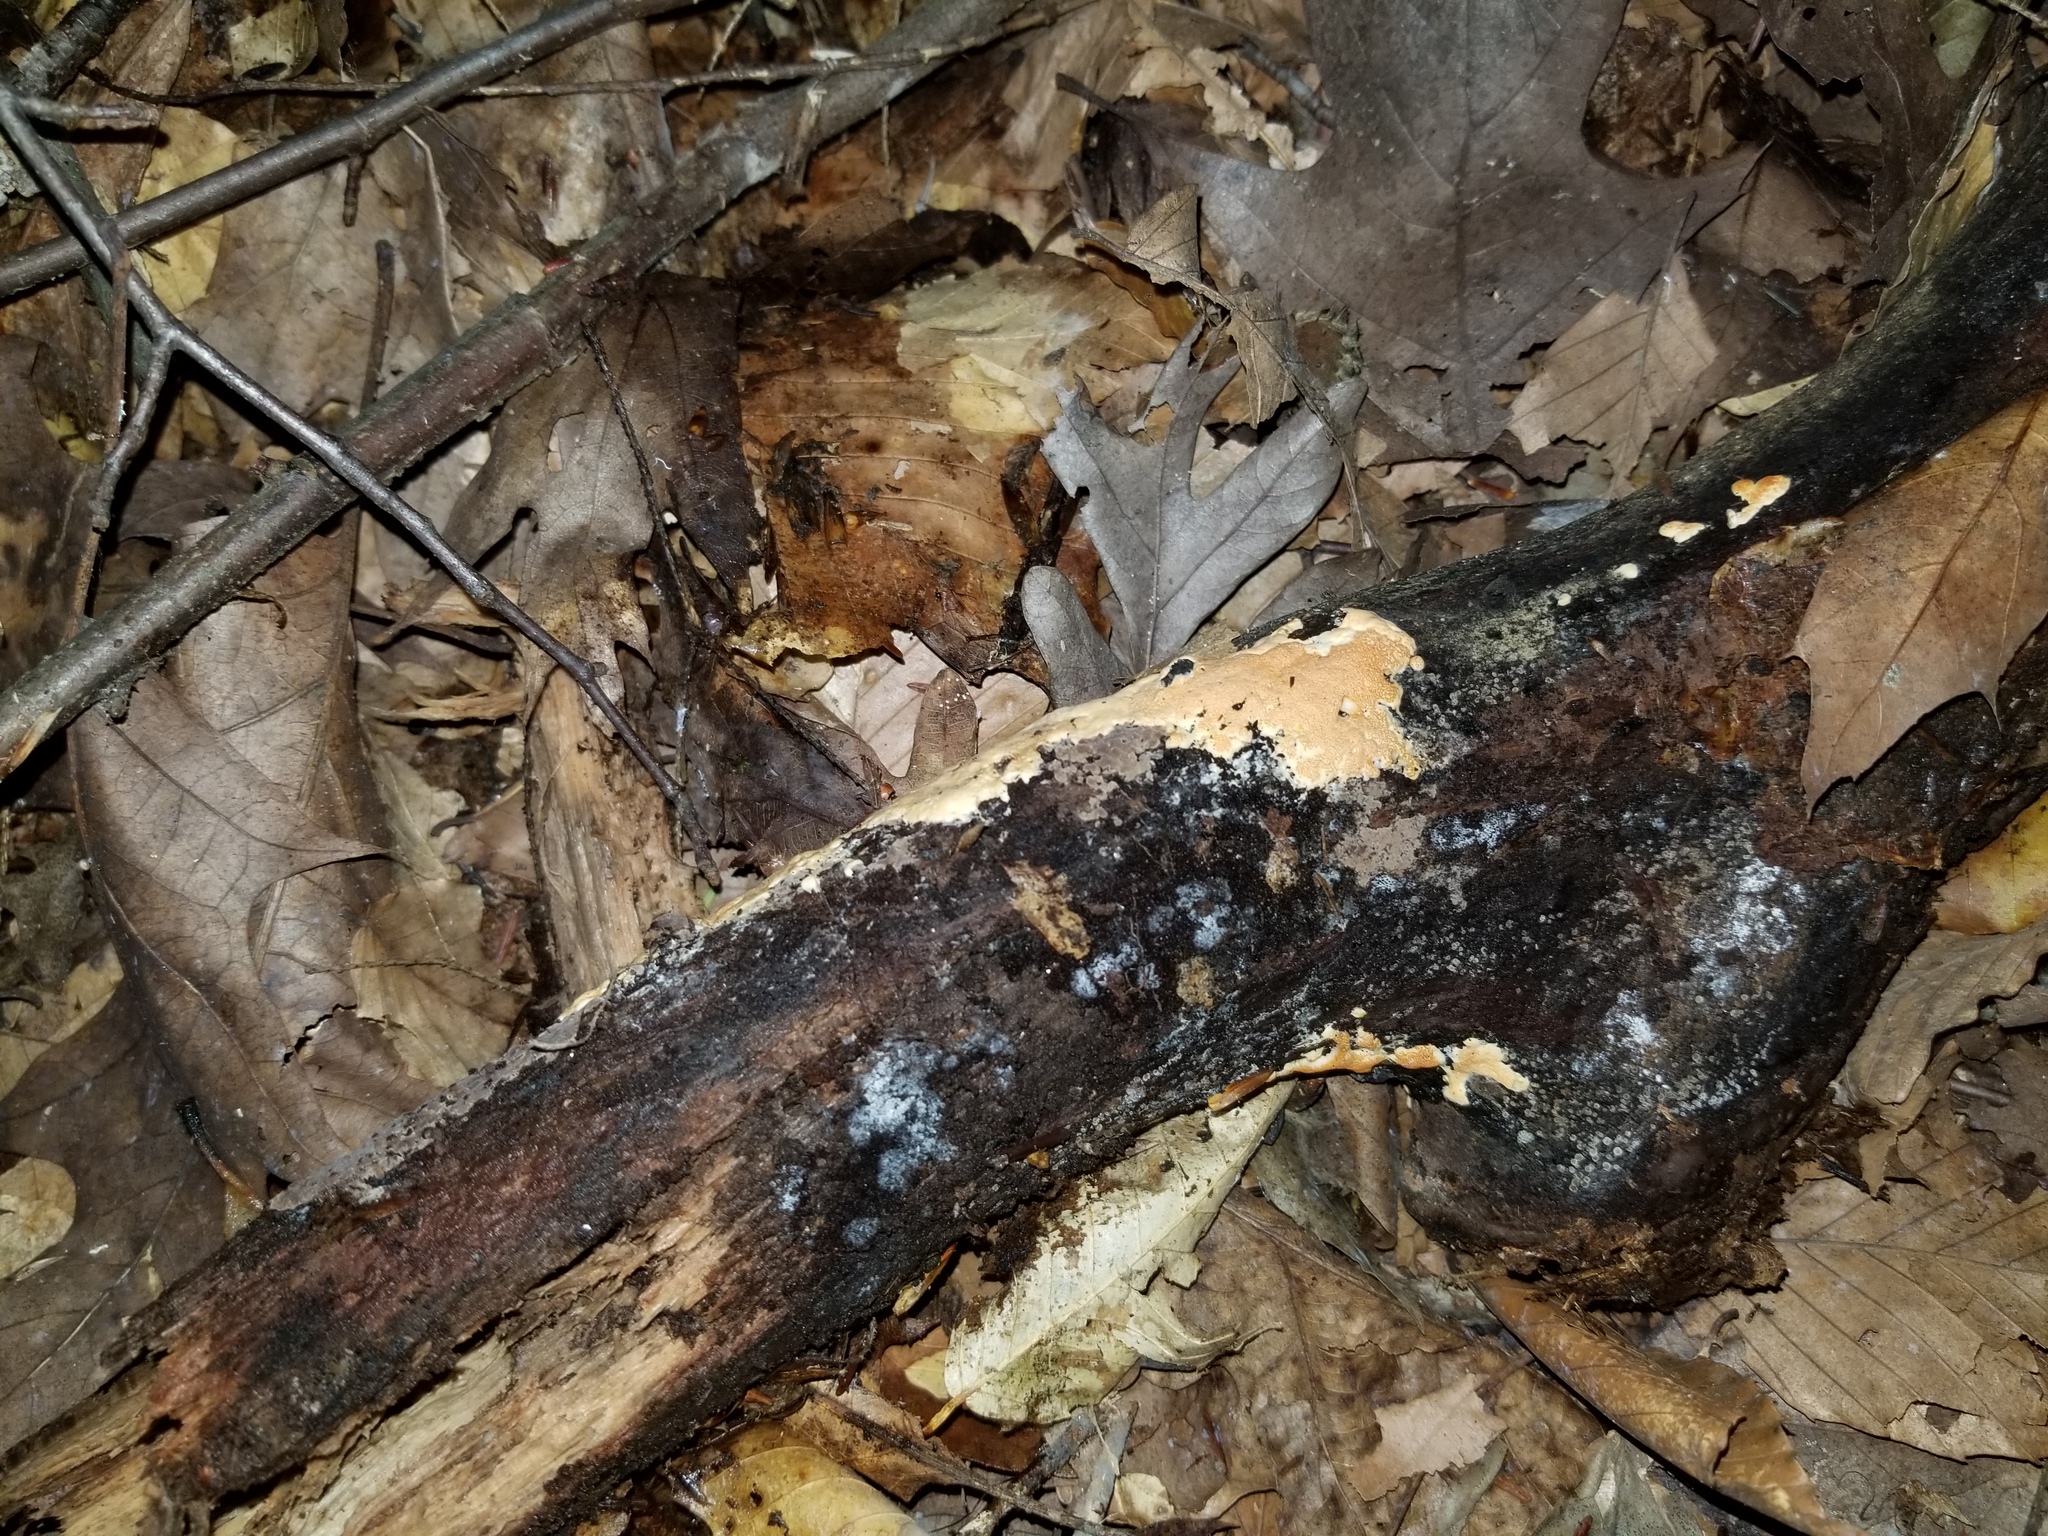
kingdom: Fungi
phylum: Ascomycota
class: Sordariomycetes
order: Hypocreales
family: Hypocreaceae
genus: Hypomyces
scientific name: Hypomyces armeniacus
